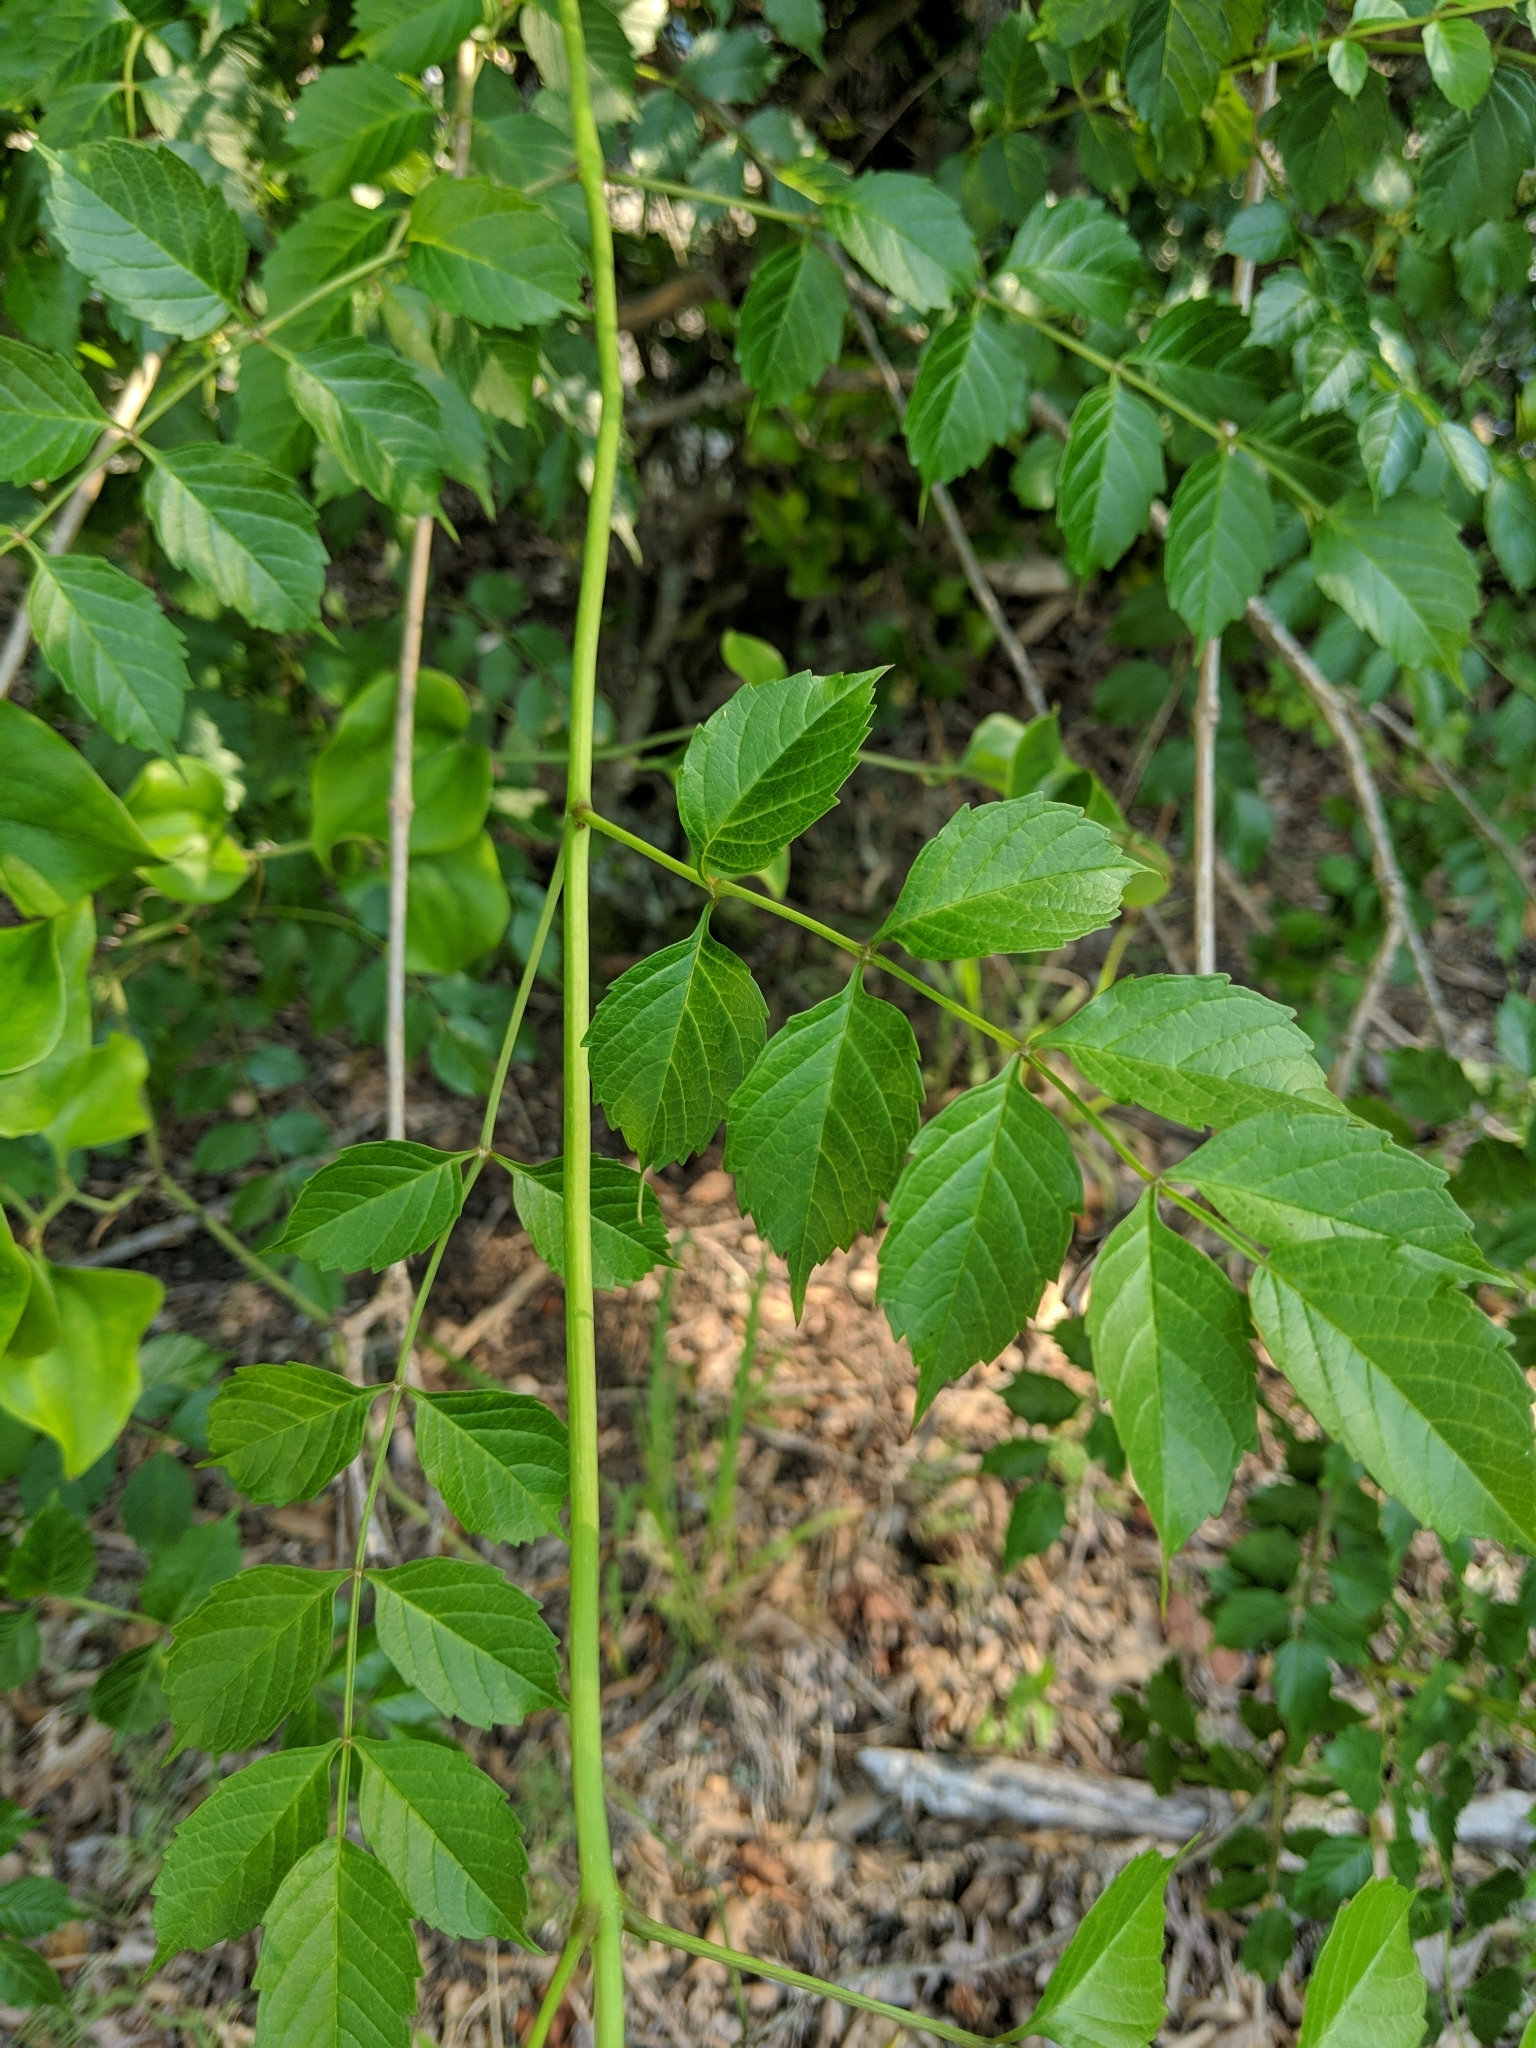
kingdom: Plantae
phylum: Tracheophyta
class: Magnoliopsida
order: Lamiales
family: Bignoniaceae
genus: Campsis
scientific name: Campsis radicans
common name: Trumpet-creeper
